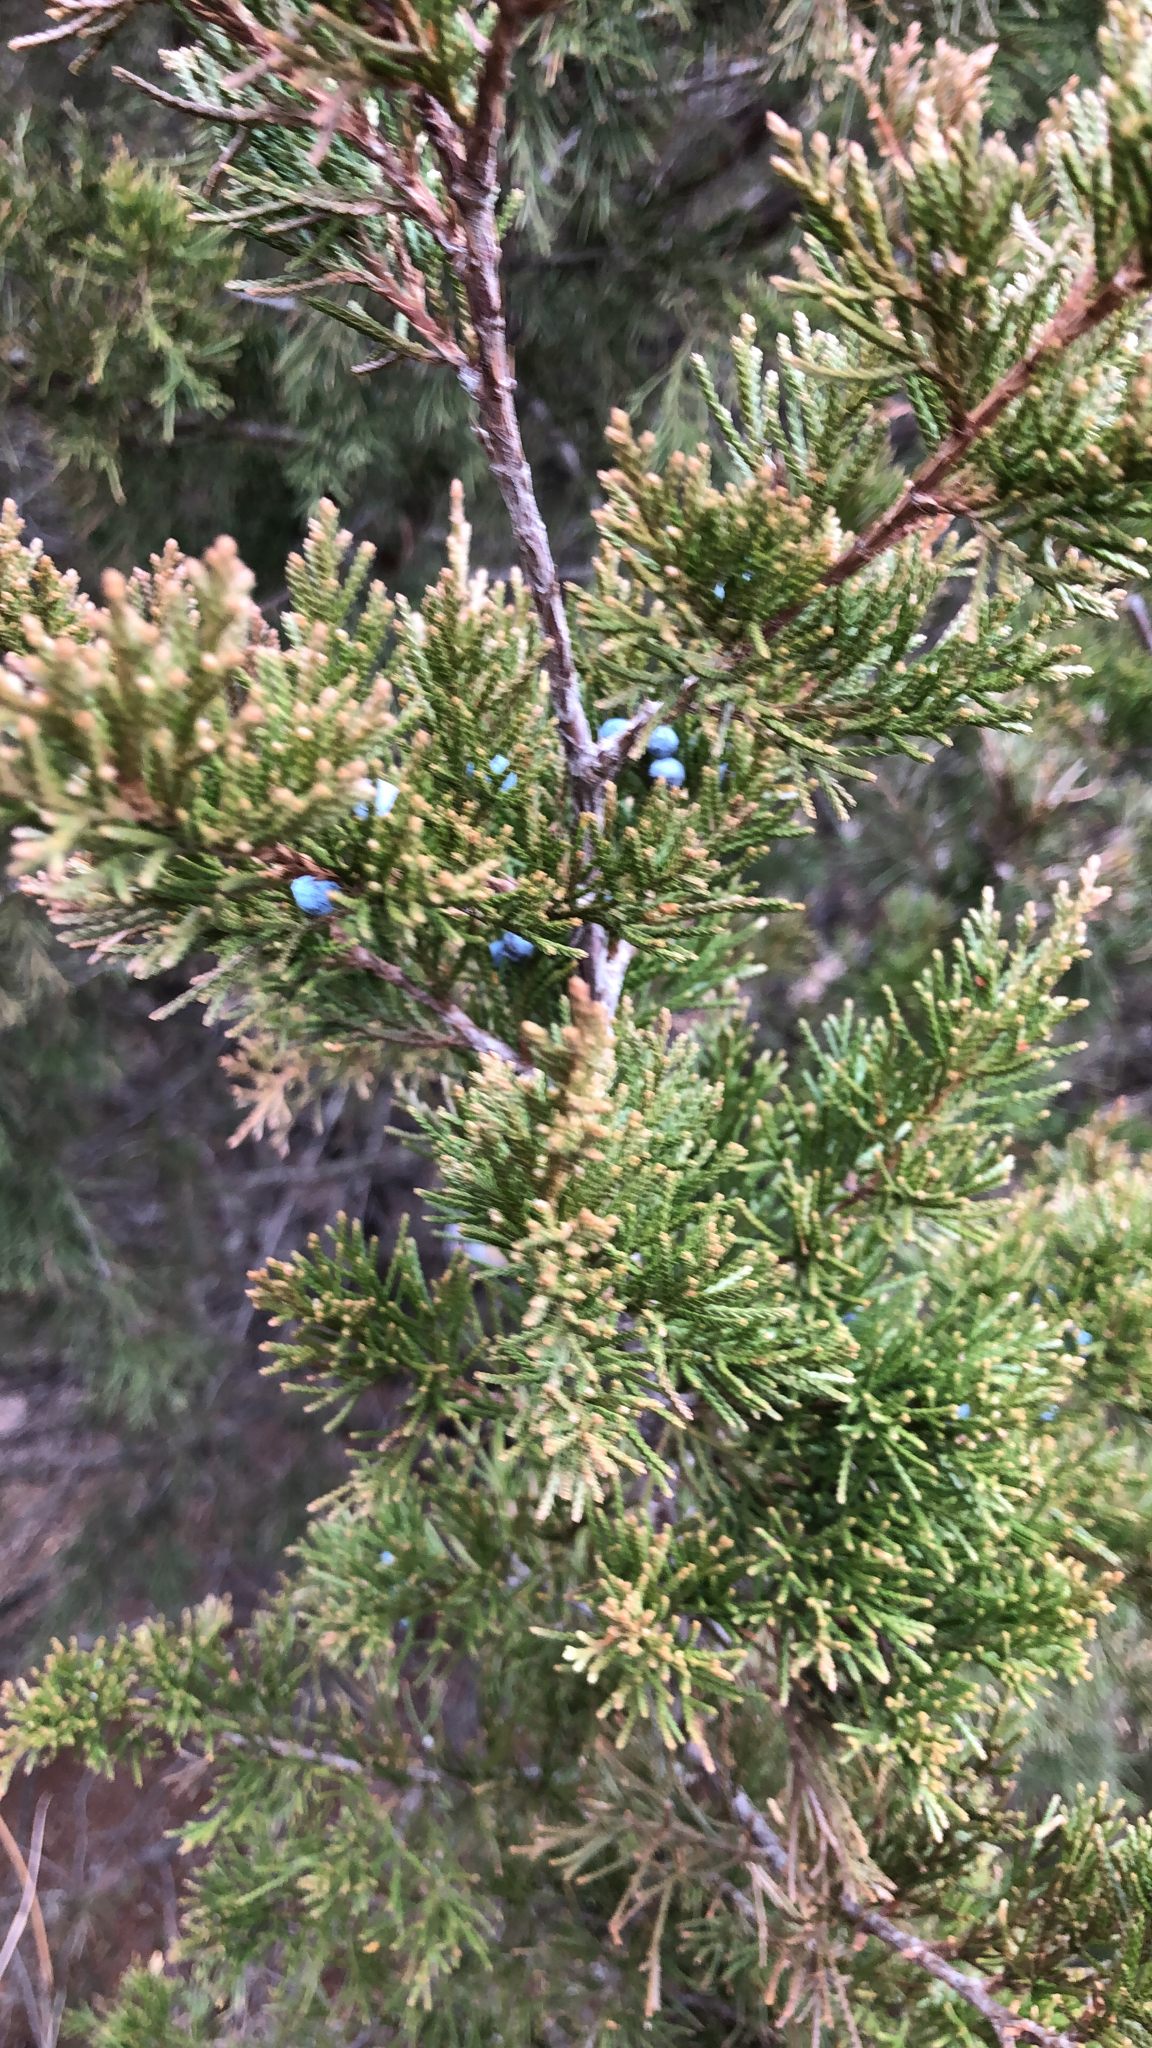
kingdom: Plantae
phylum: Tracheophyta
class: Pinopsida
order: Pinales
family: Cupressaceae
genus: Juniperus
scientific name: Juniperus virginiana
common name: Red juniper
